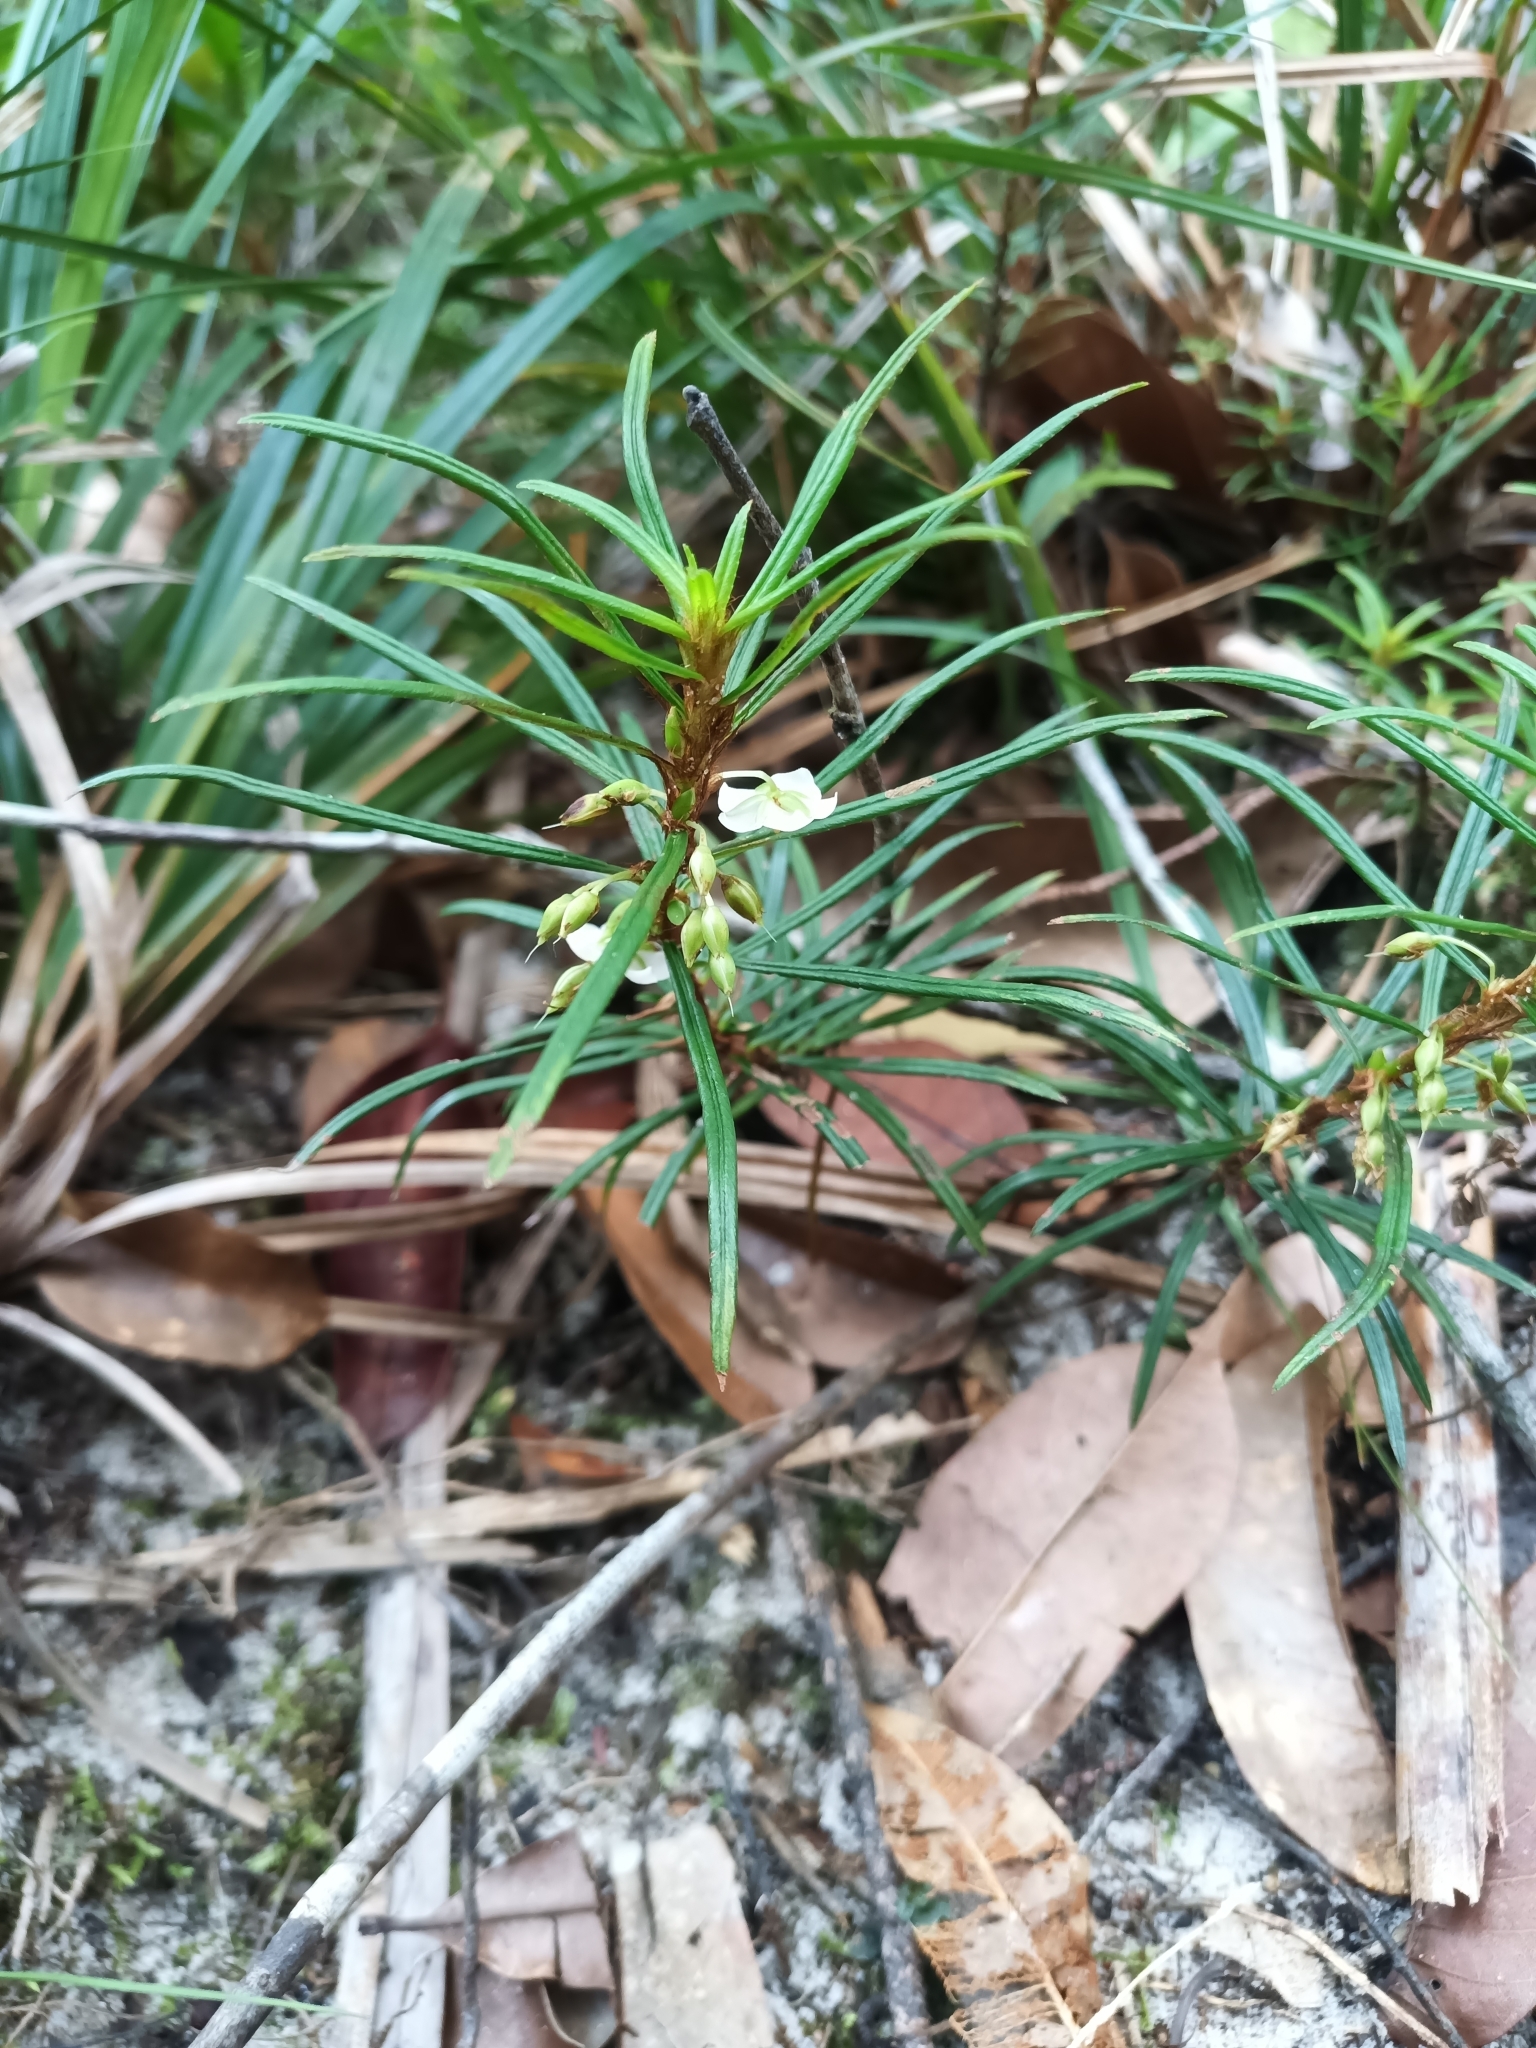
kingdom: Plantae
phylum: Tracheophyta
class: Magnoliopsida
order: Malpighiales
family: Ochnaceae
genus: Sauvagesia
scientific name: Sauvagesia aliciae
